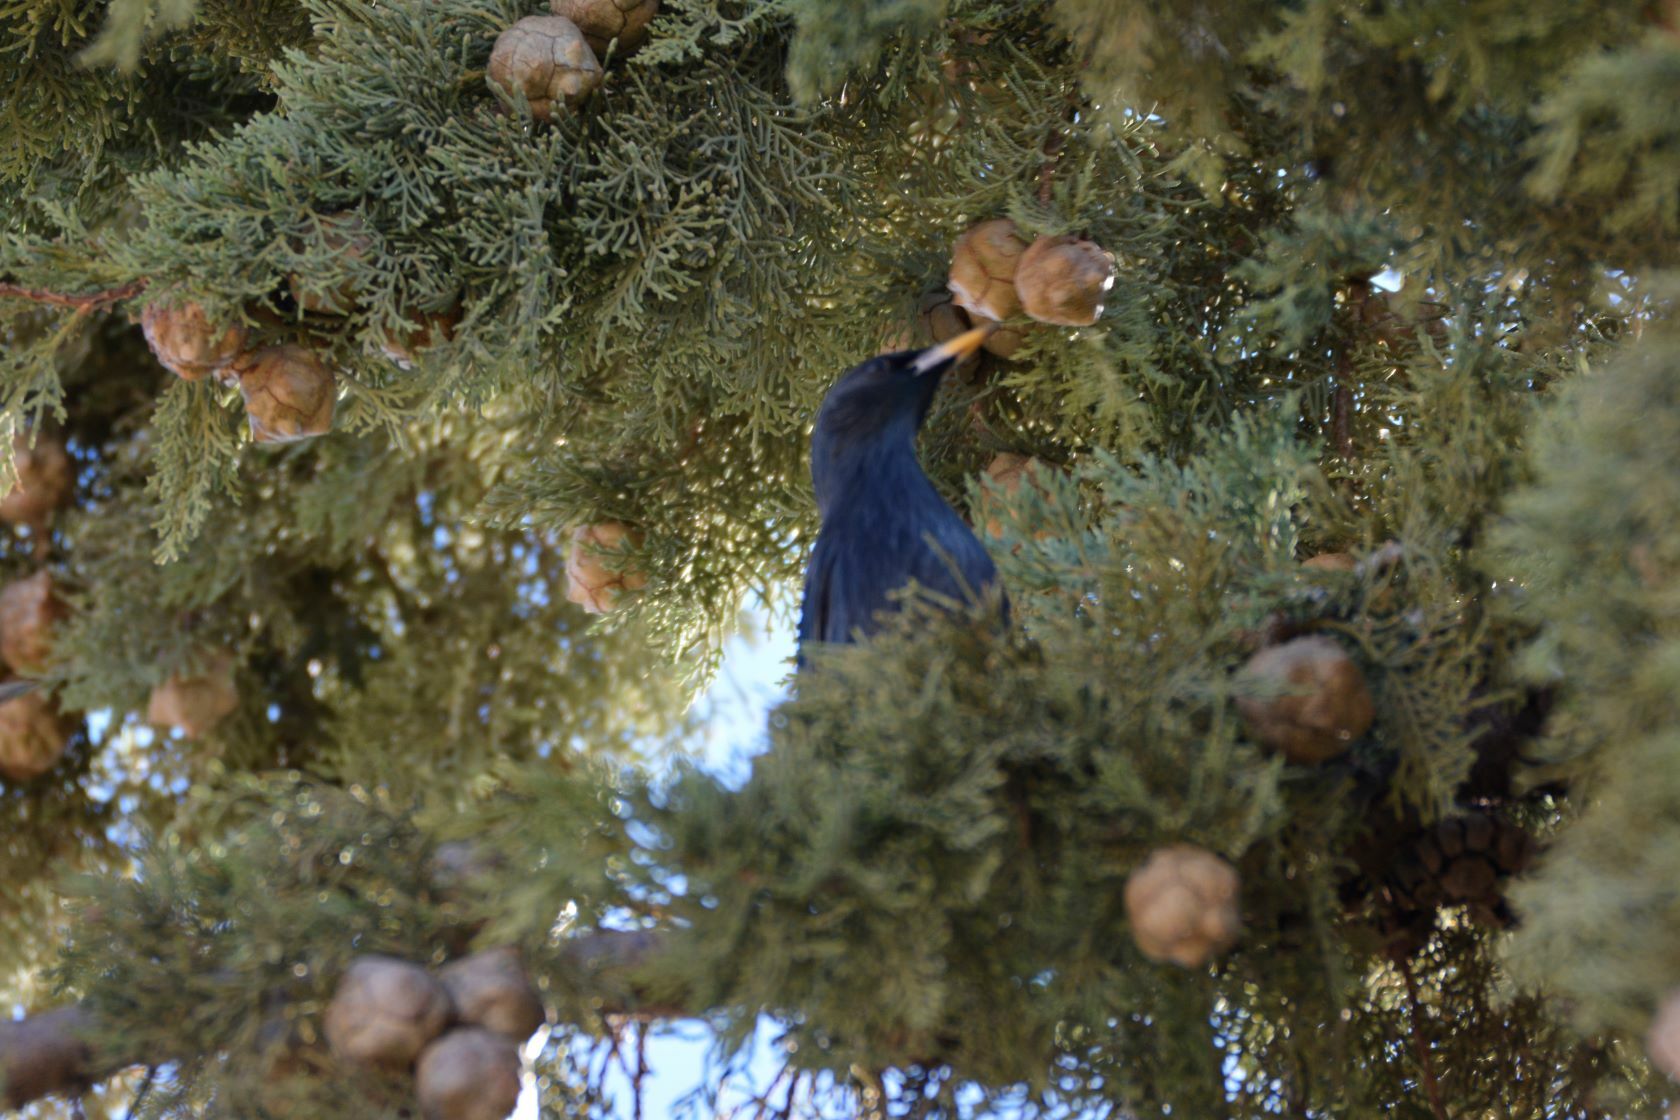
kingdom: Animalia
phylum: Chordata
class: Aves
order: Passeriformes
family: Sturnidae
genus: Sturnus
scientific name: Sturnus unicolor
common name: Spotless starling
